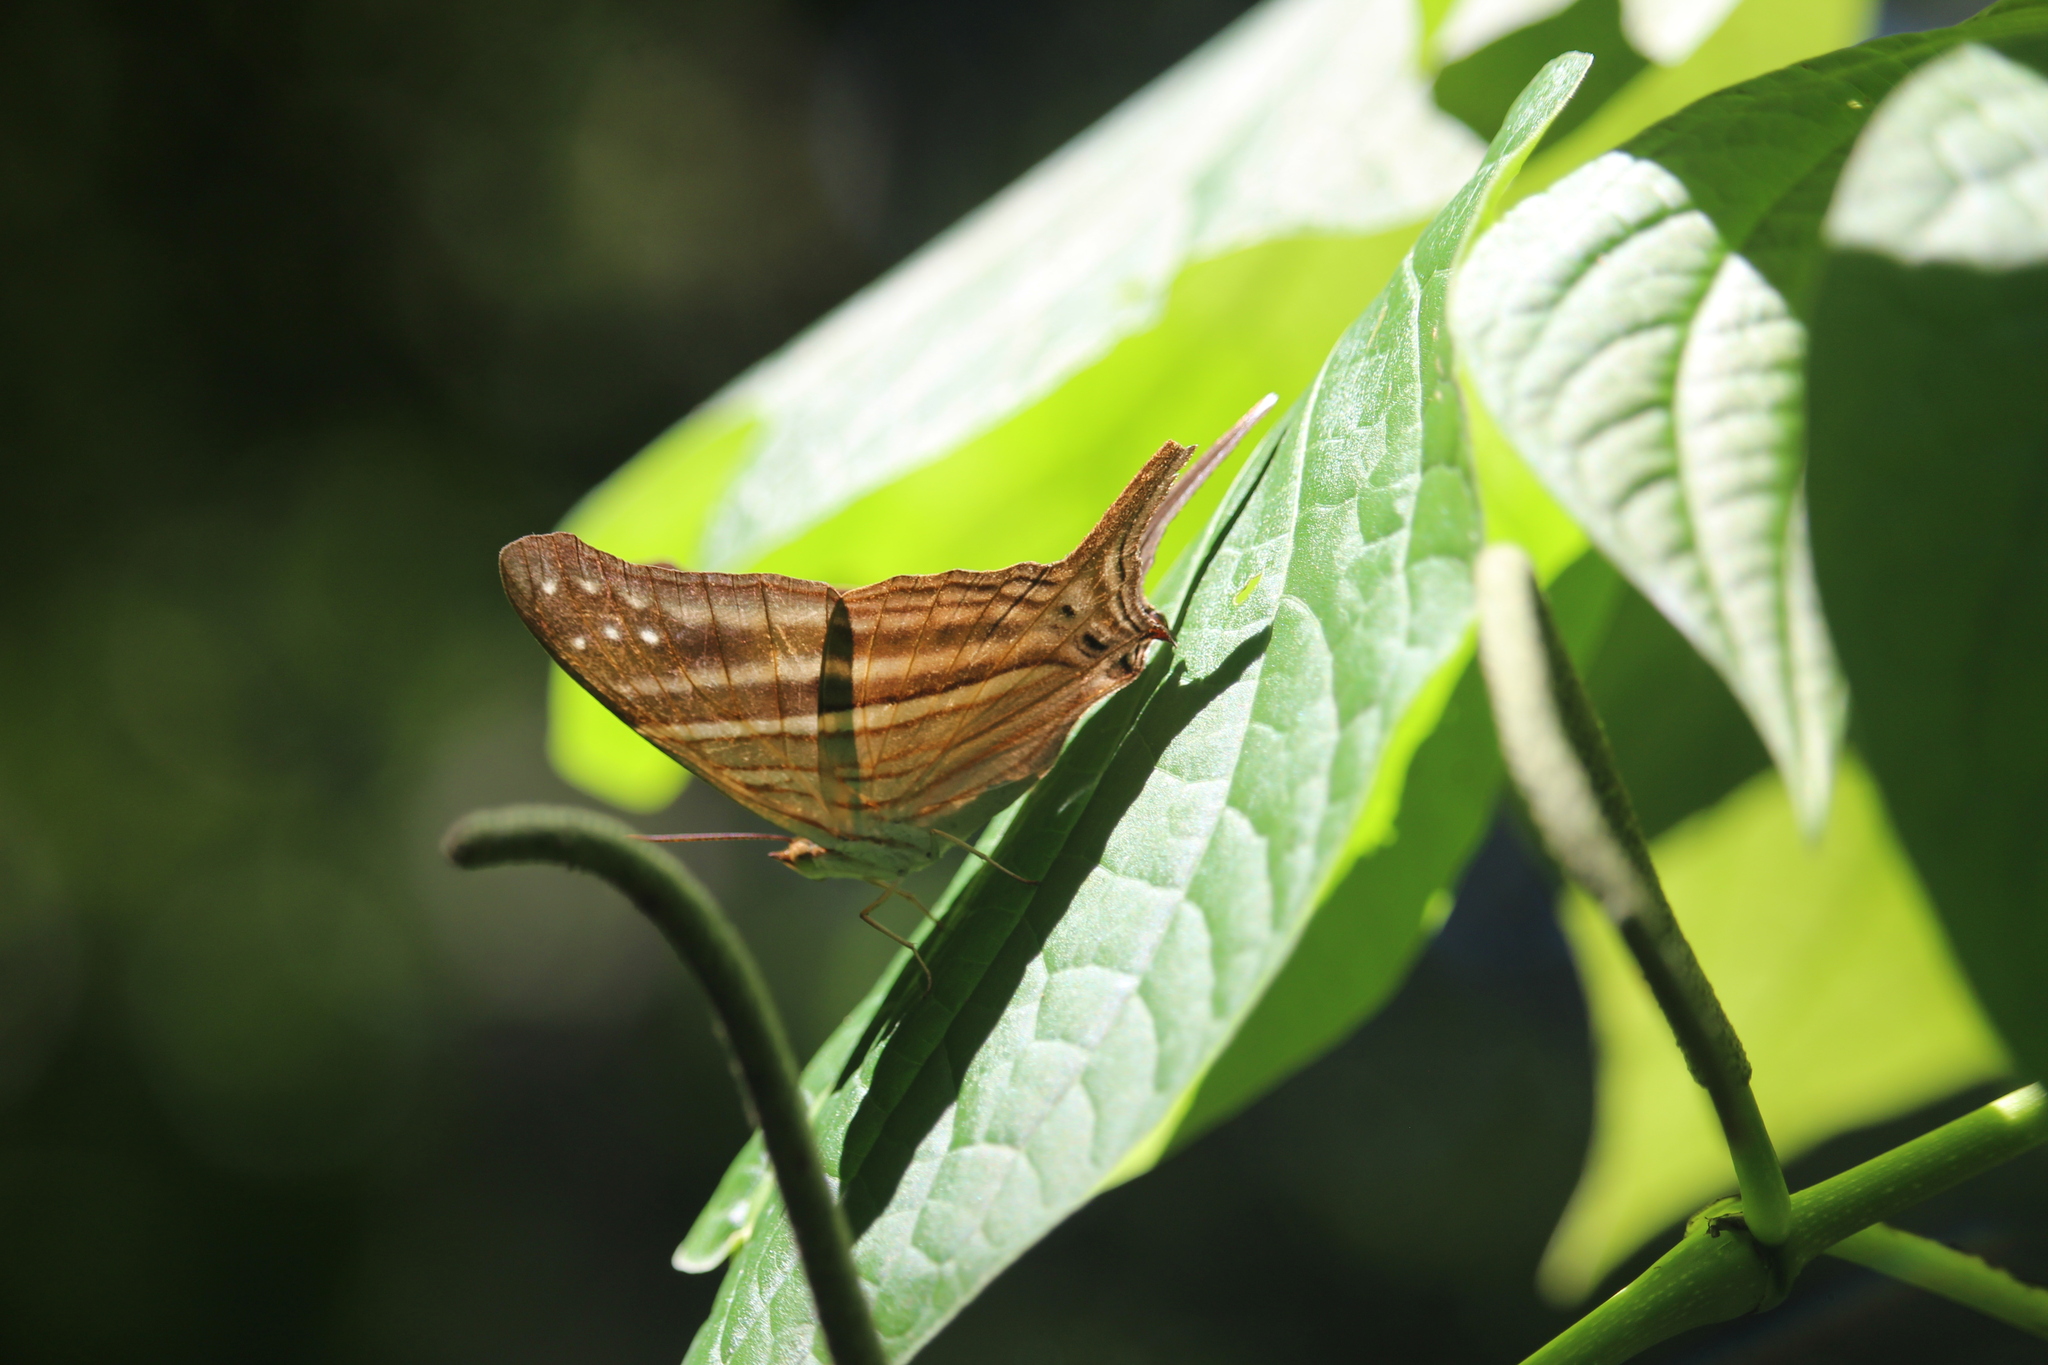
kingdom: Animalia
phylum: Arthropoda
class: Insecta
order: Lepidoptera
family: Nymphalidae
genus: Marpesia
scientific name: Marpesia chiron
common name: Many-banded daggerwing
